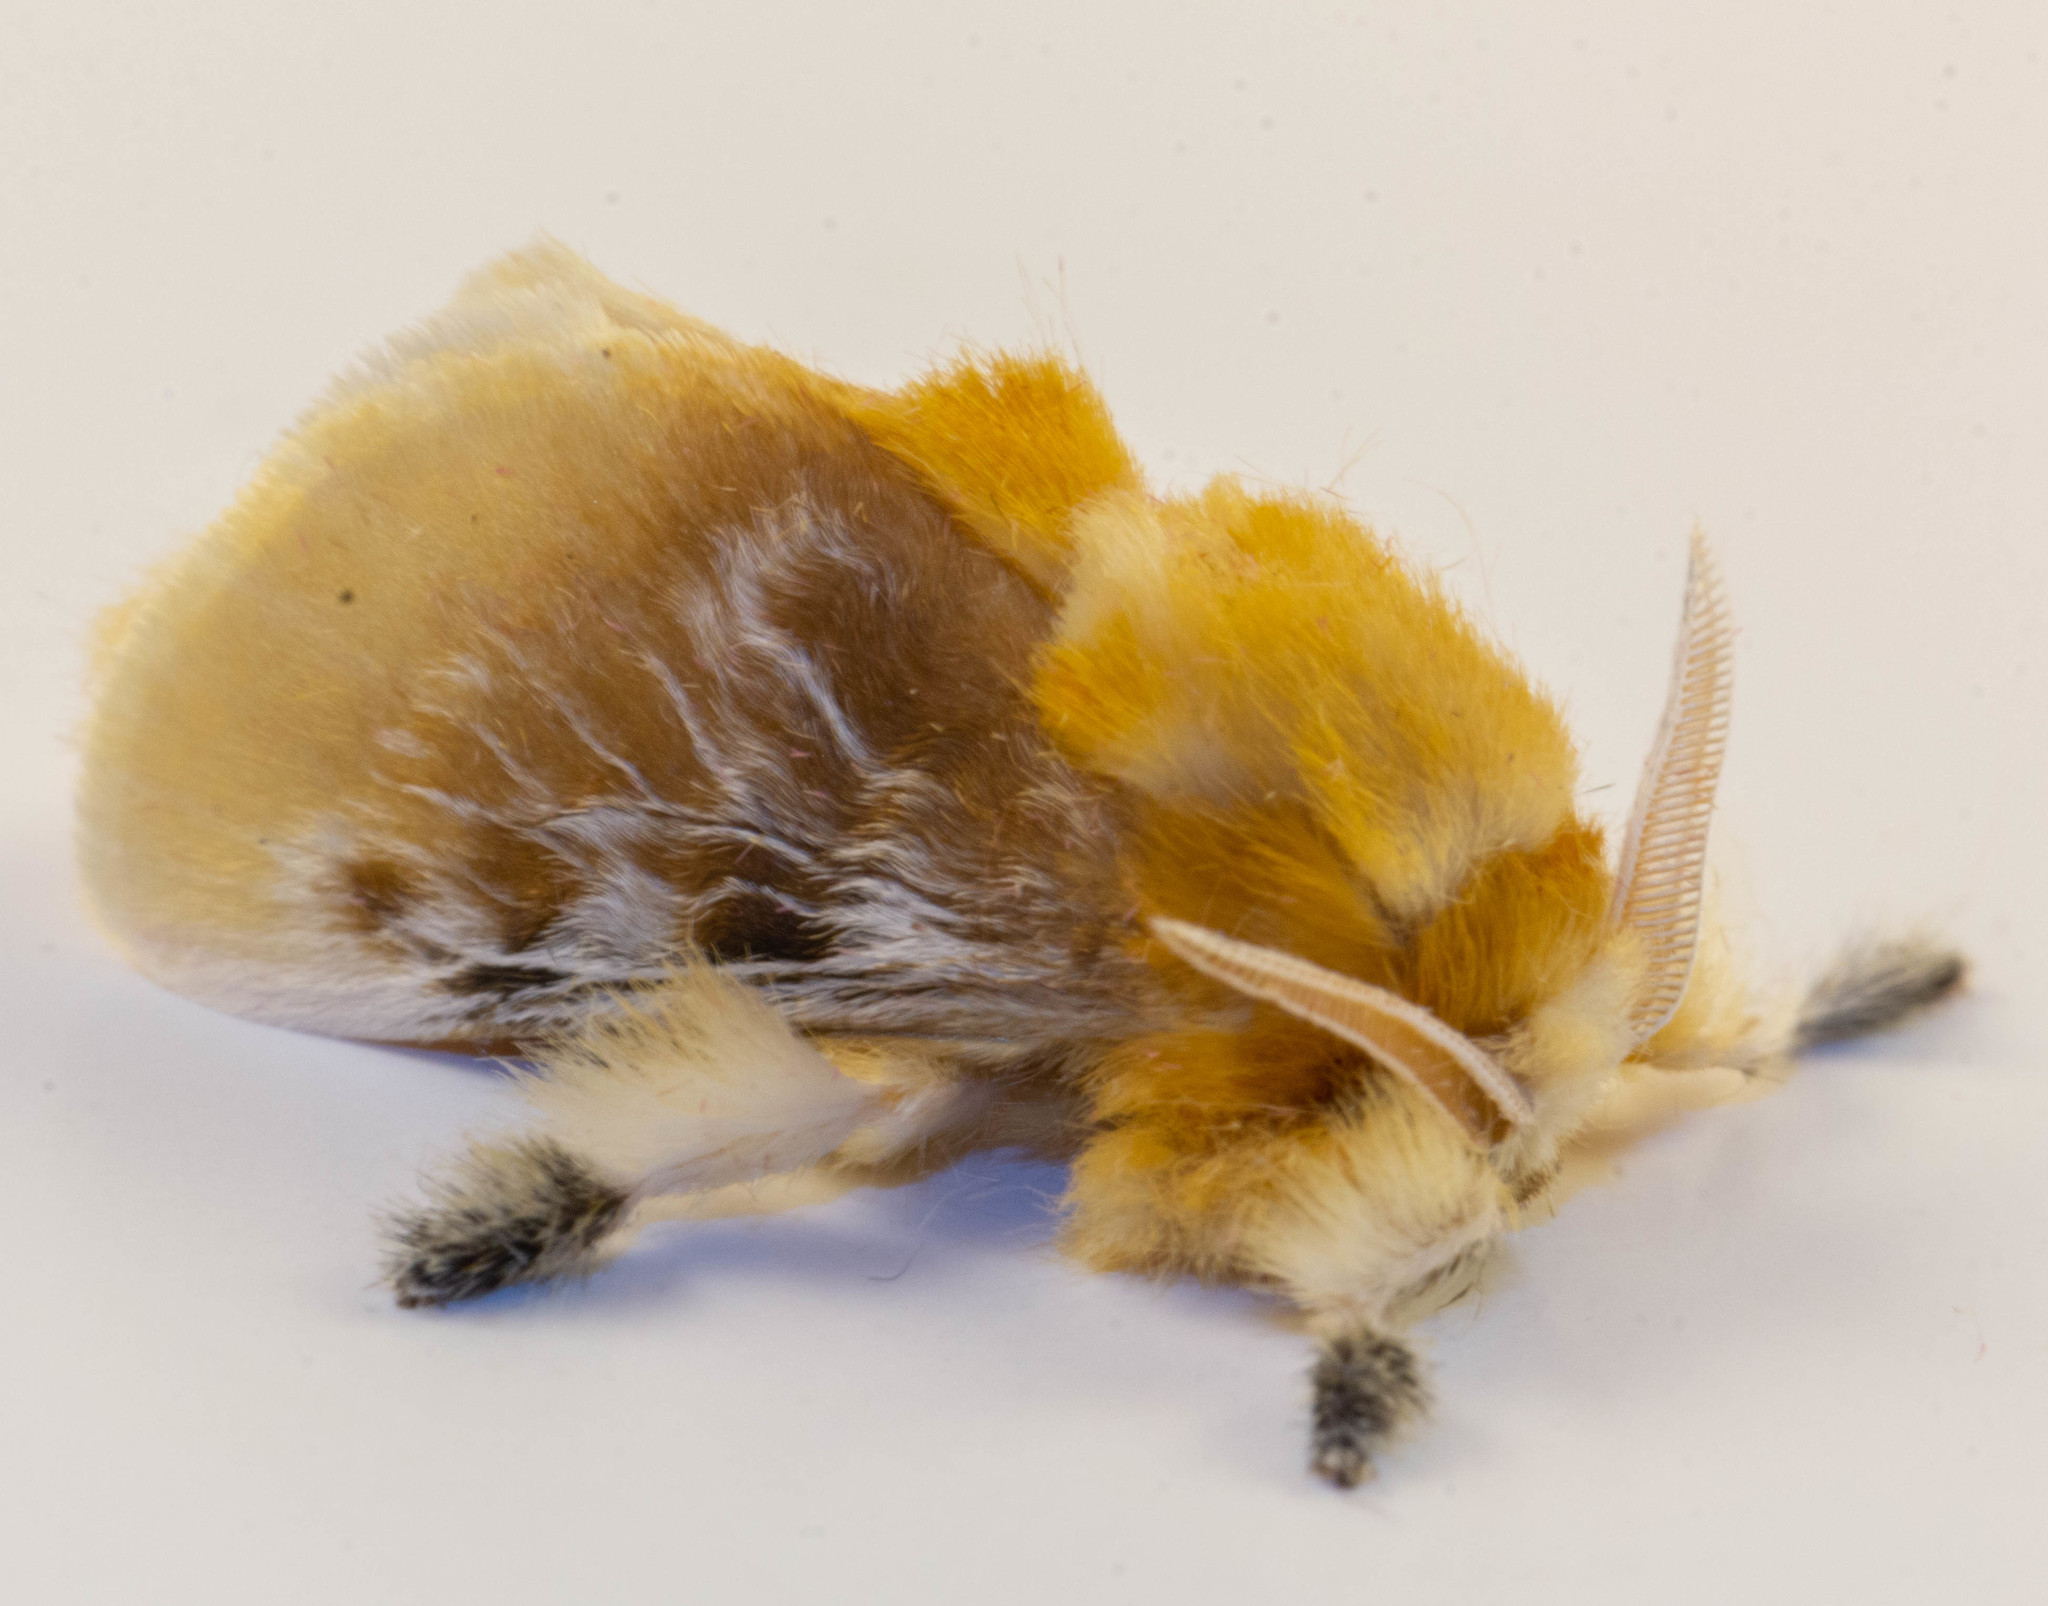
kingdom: Animalia
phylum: Arthropoda
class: Insecta
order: Lepidoptera
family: Megalopygidae
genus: Megalopyge
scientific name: Megalopyge opercularis
